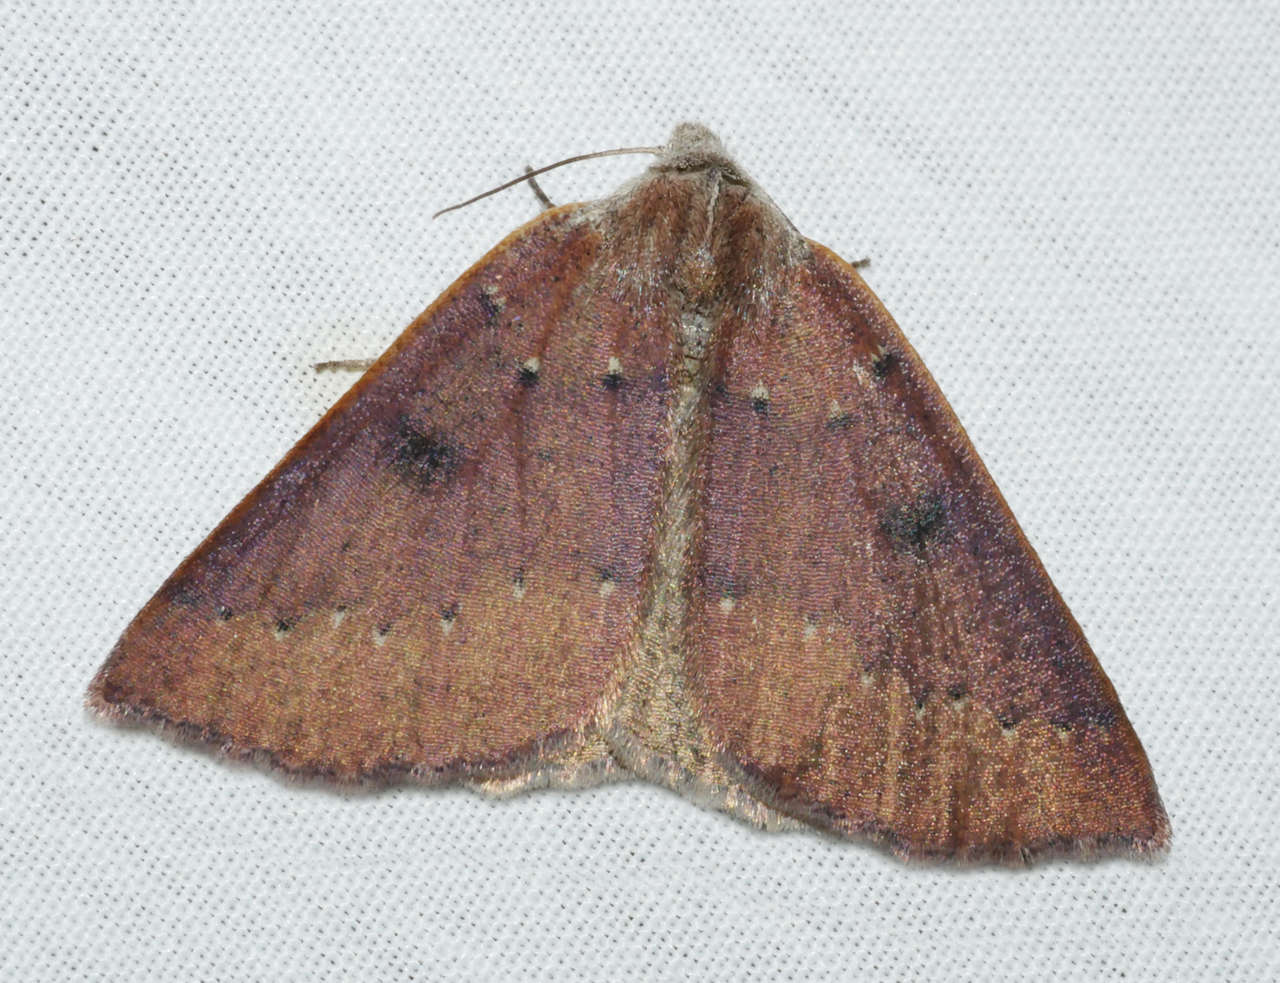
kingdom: Animalia
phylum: Arthropoda
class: Insecta
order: Lepidoptera
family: Geometridae
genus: Androchela
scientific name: Androchela milvaria
